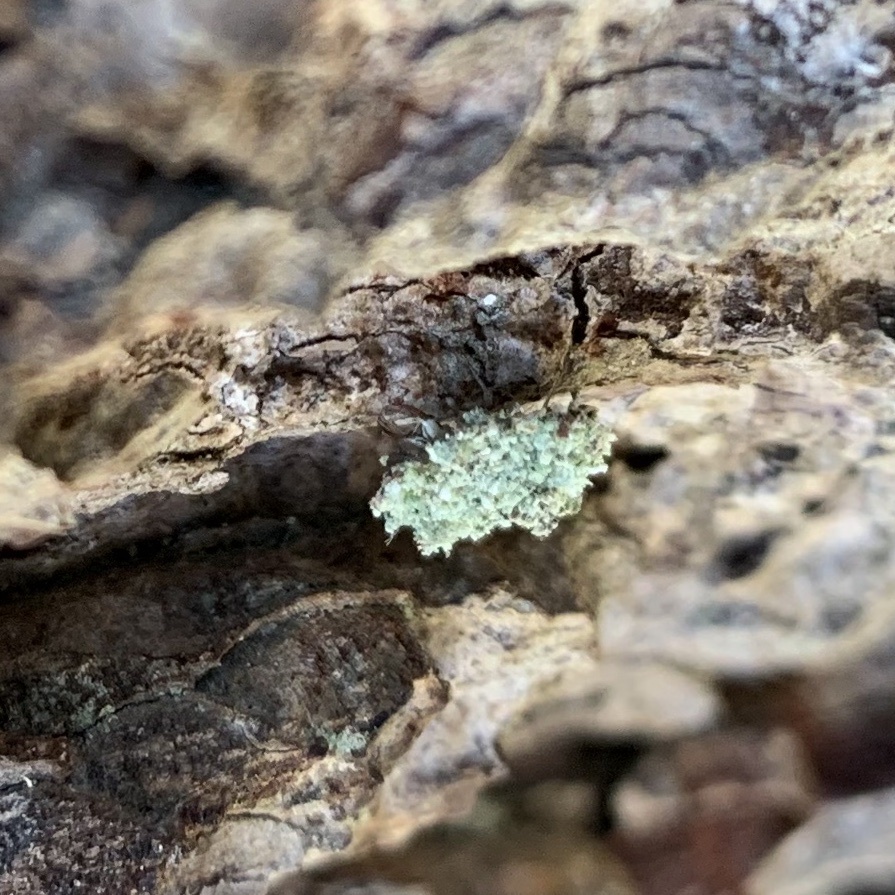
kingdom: Animalia
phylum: Arthropoda
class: Insecta
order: Neuroptera
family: Chrysopidae
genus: Leucochrysa
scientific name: Leucochrysa pavida
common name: Lichen-carrying green lacewing
